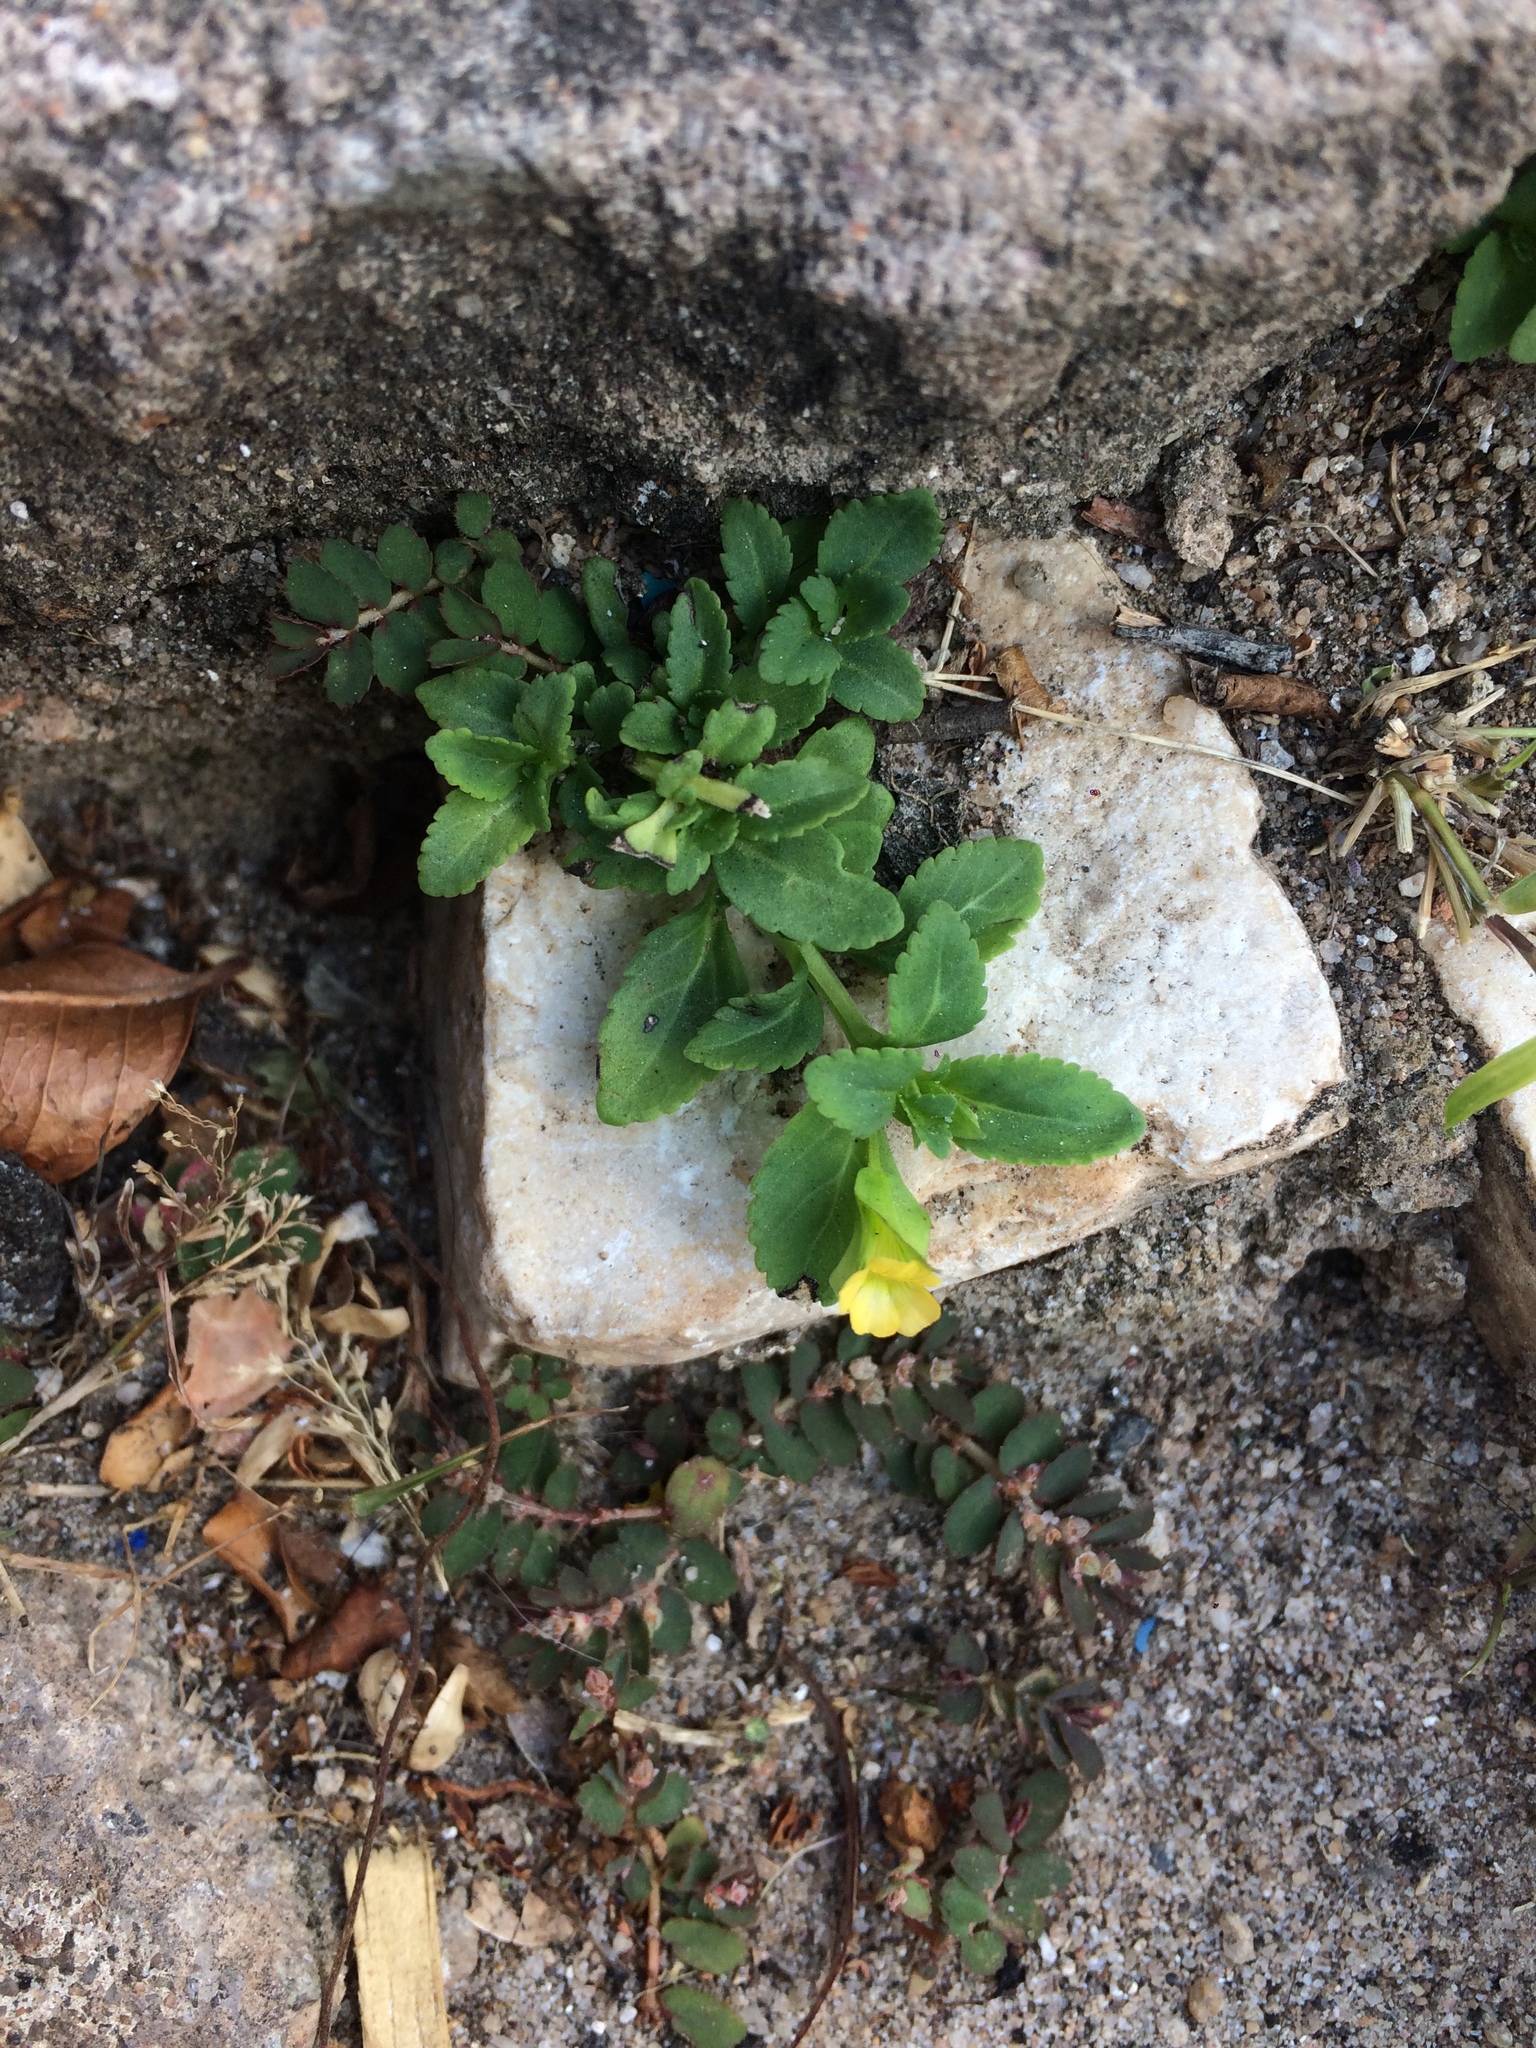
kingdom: Plantae
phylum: Tracheophyta
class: Magnoliopsida
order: Lamiales
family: Plantaginaceae
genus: Mecardonia
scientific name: Mecardonia procumbens
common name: Baby jump-up
